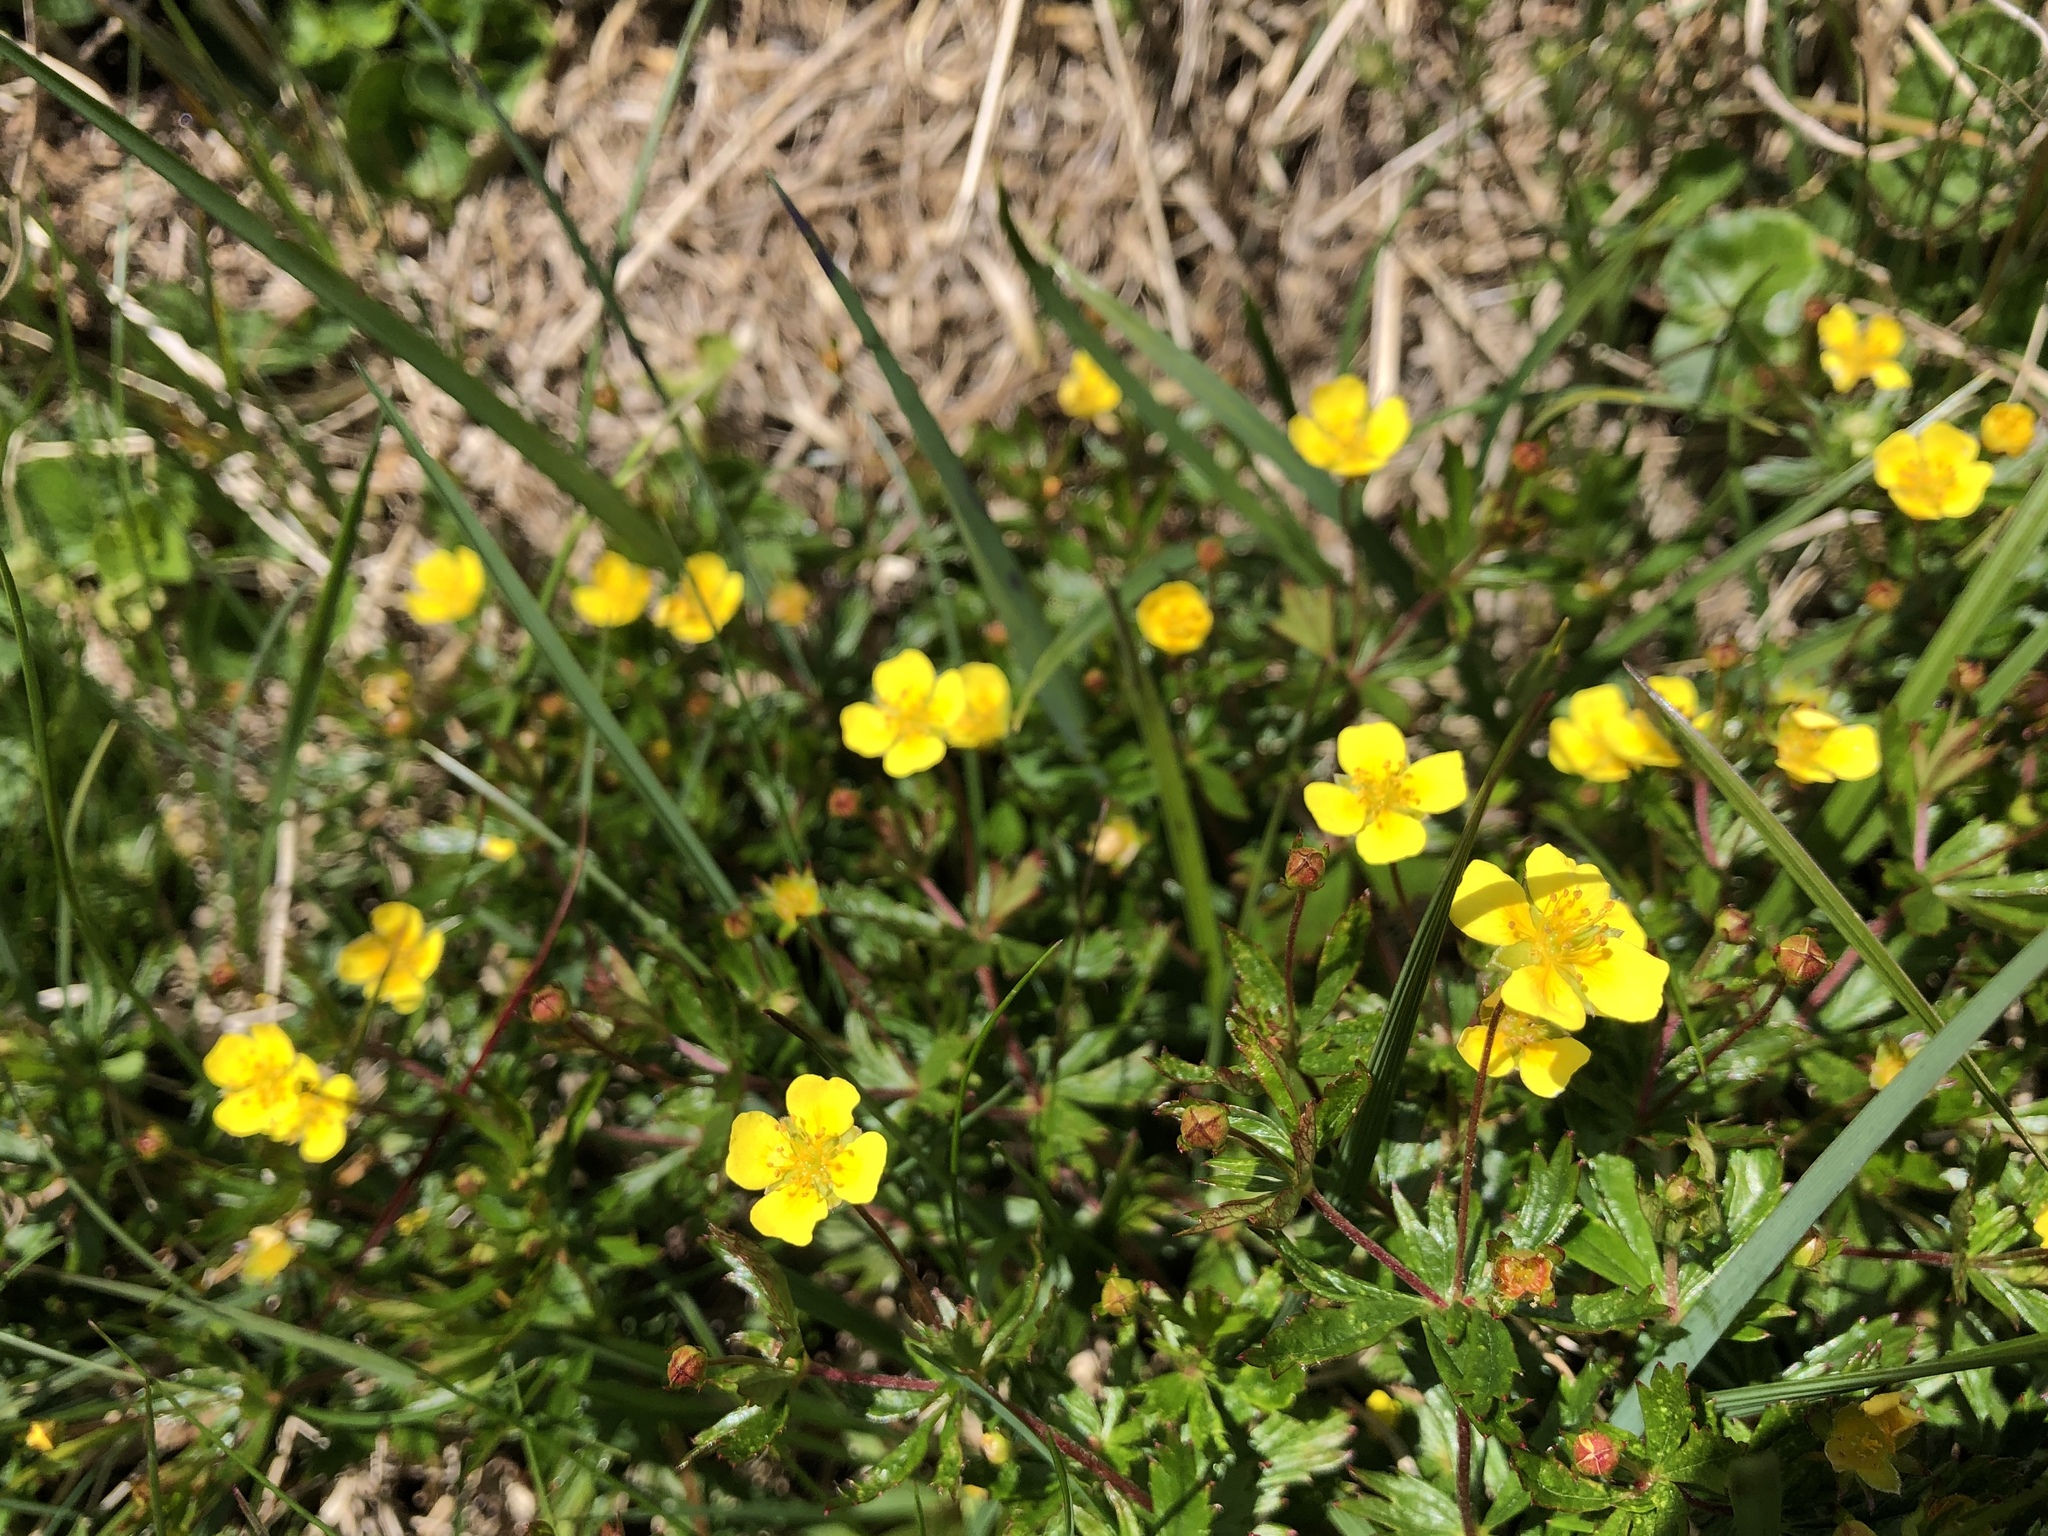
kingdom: Plantae
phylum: Tracheophyta
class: Magnoliopsida
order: Rosales
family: Rosaceae
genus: Potentilla
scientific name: Potentilla erecta
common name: Tormentil
